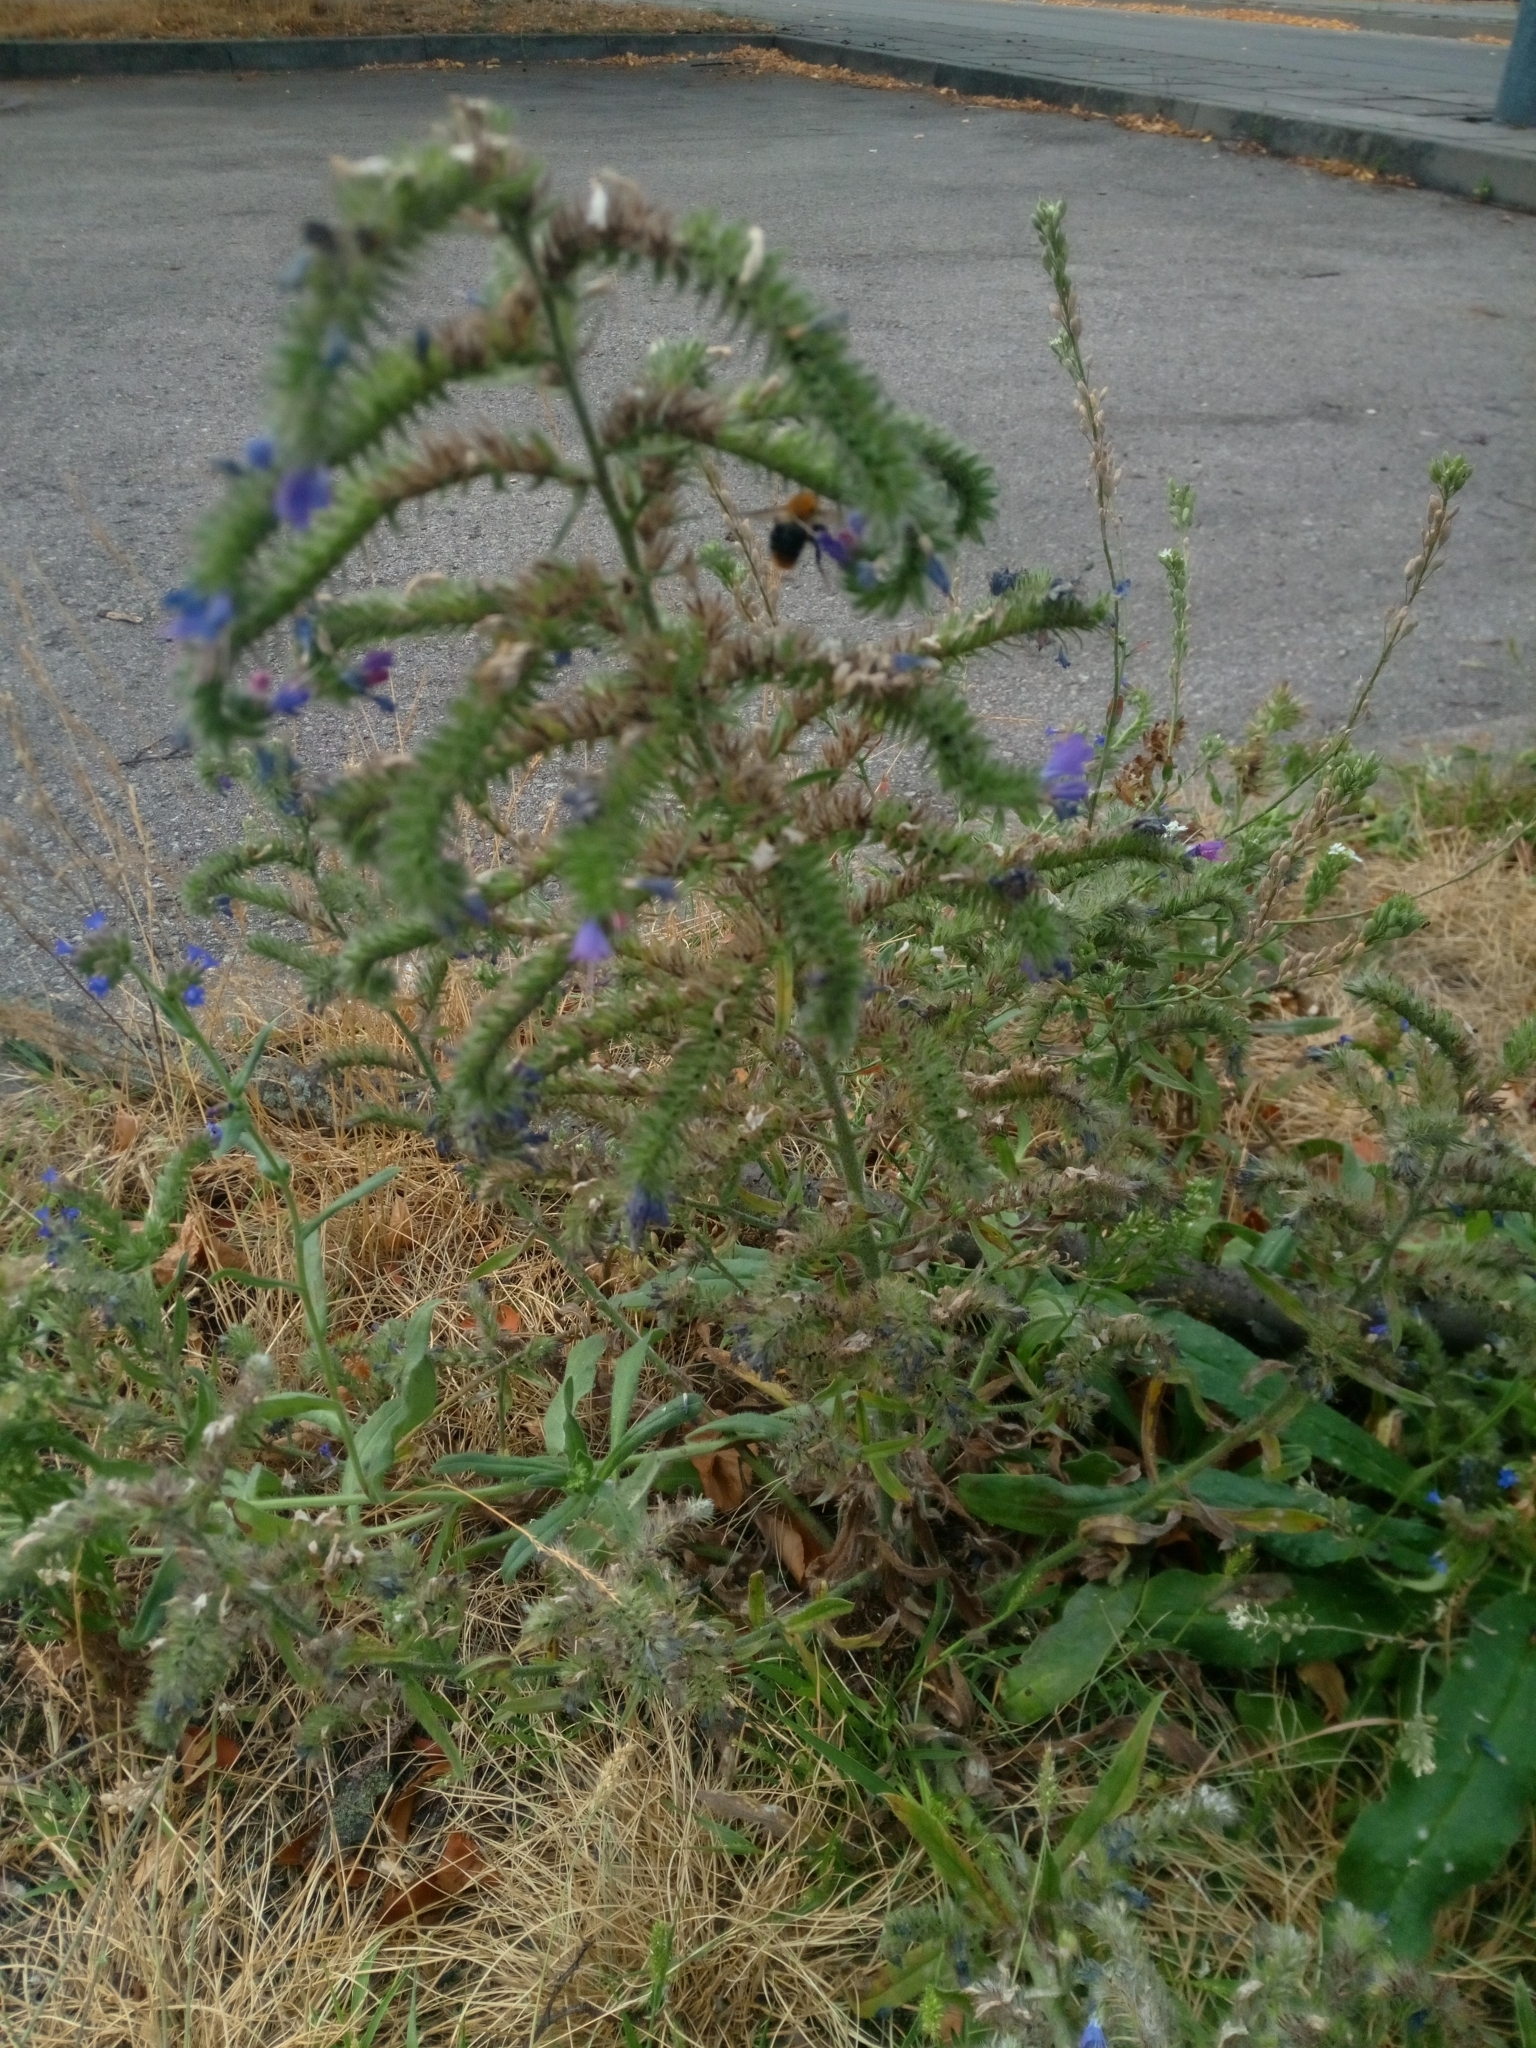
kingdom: Plantae
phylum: Tracheophyta
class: Magnoliopsida
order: Boraginales
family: Boraginaceae
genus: Echium
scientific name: Echium vulgare
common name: Common viper's bugloss
